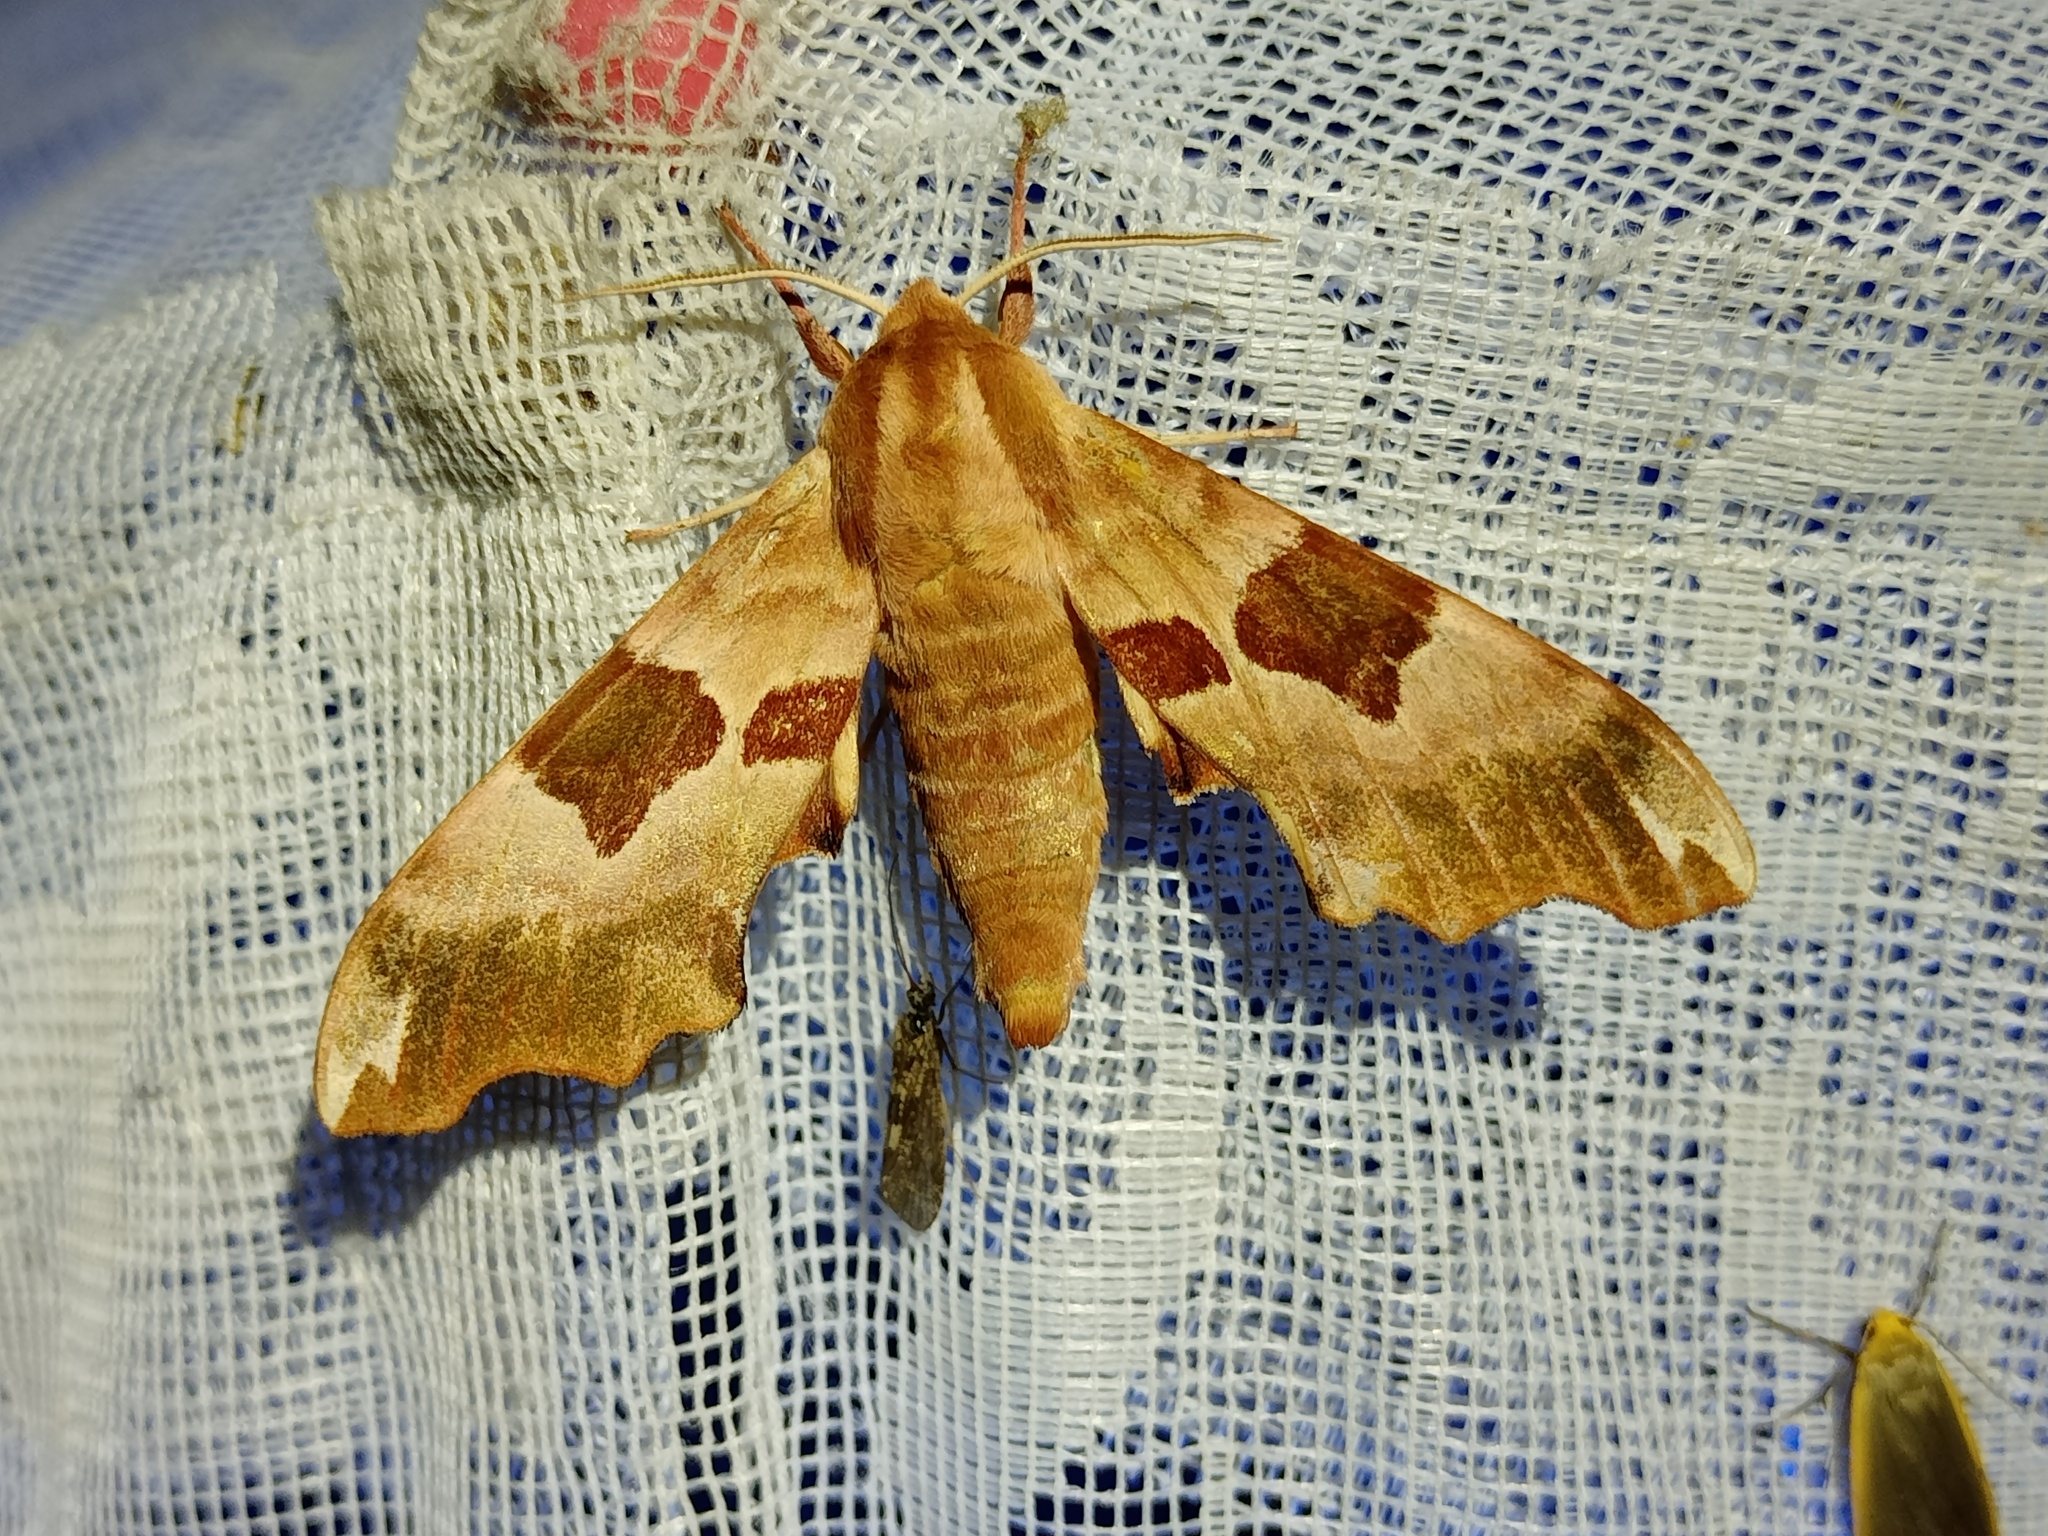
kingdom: Animalia
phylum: Arthropoda
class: Insecta
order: Lepidoptera
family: Sphingidae
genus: Mimas
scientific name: Mimas tiliae
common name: Lime hawk-moth
